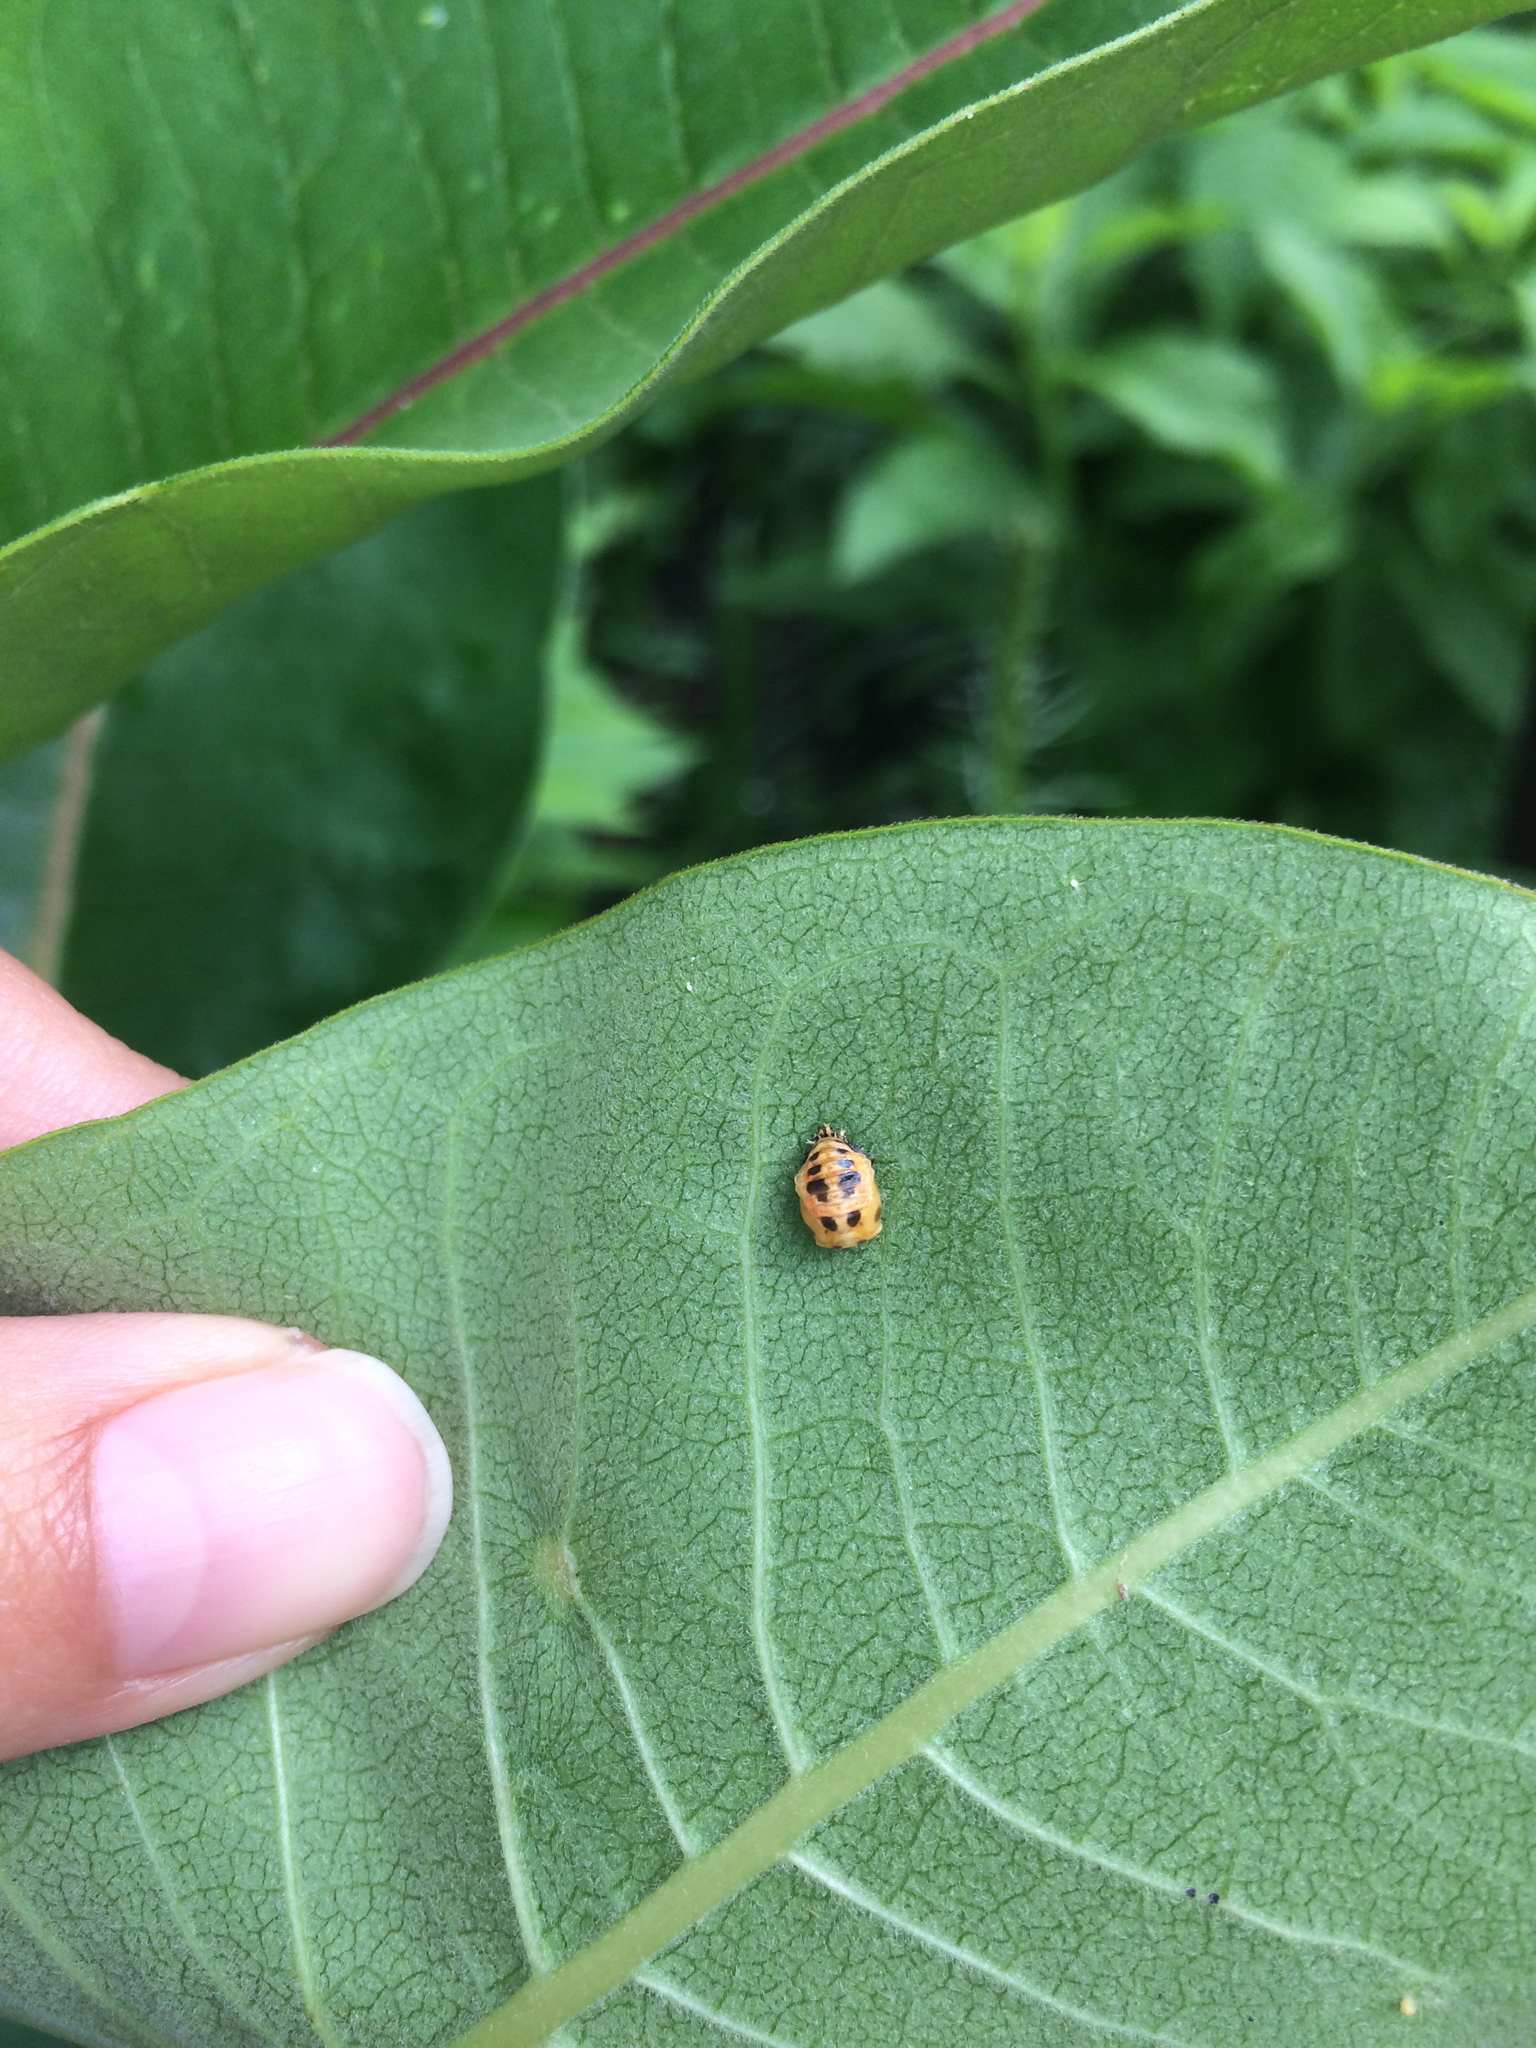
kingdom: Animalia
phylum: Arthropoda
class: Insecta
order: Coleoptera
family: Coccinellidae
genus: Harmonia
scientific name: Harmonia axyridis
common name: Harlequin ladybird
